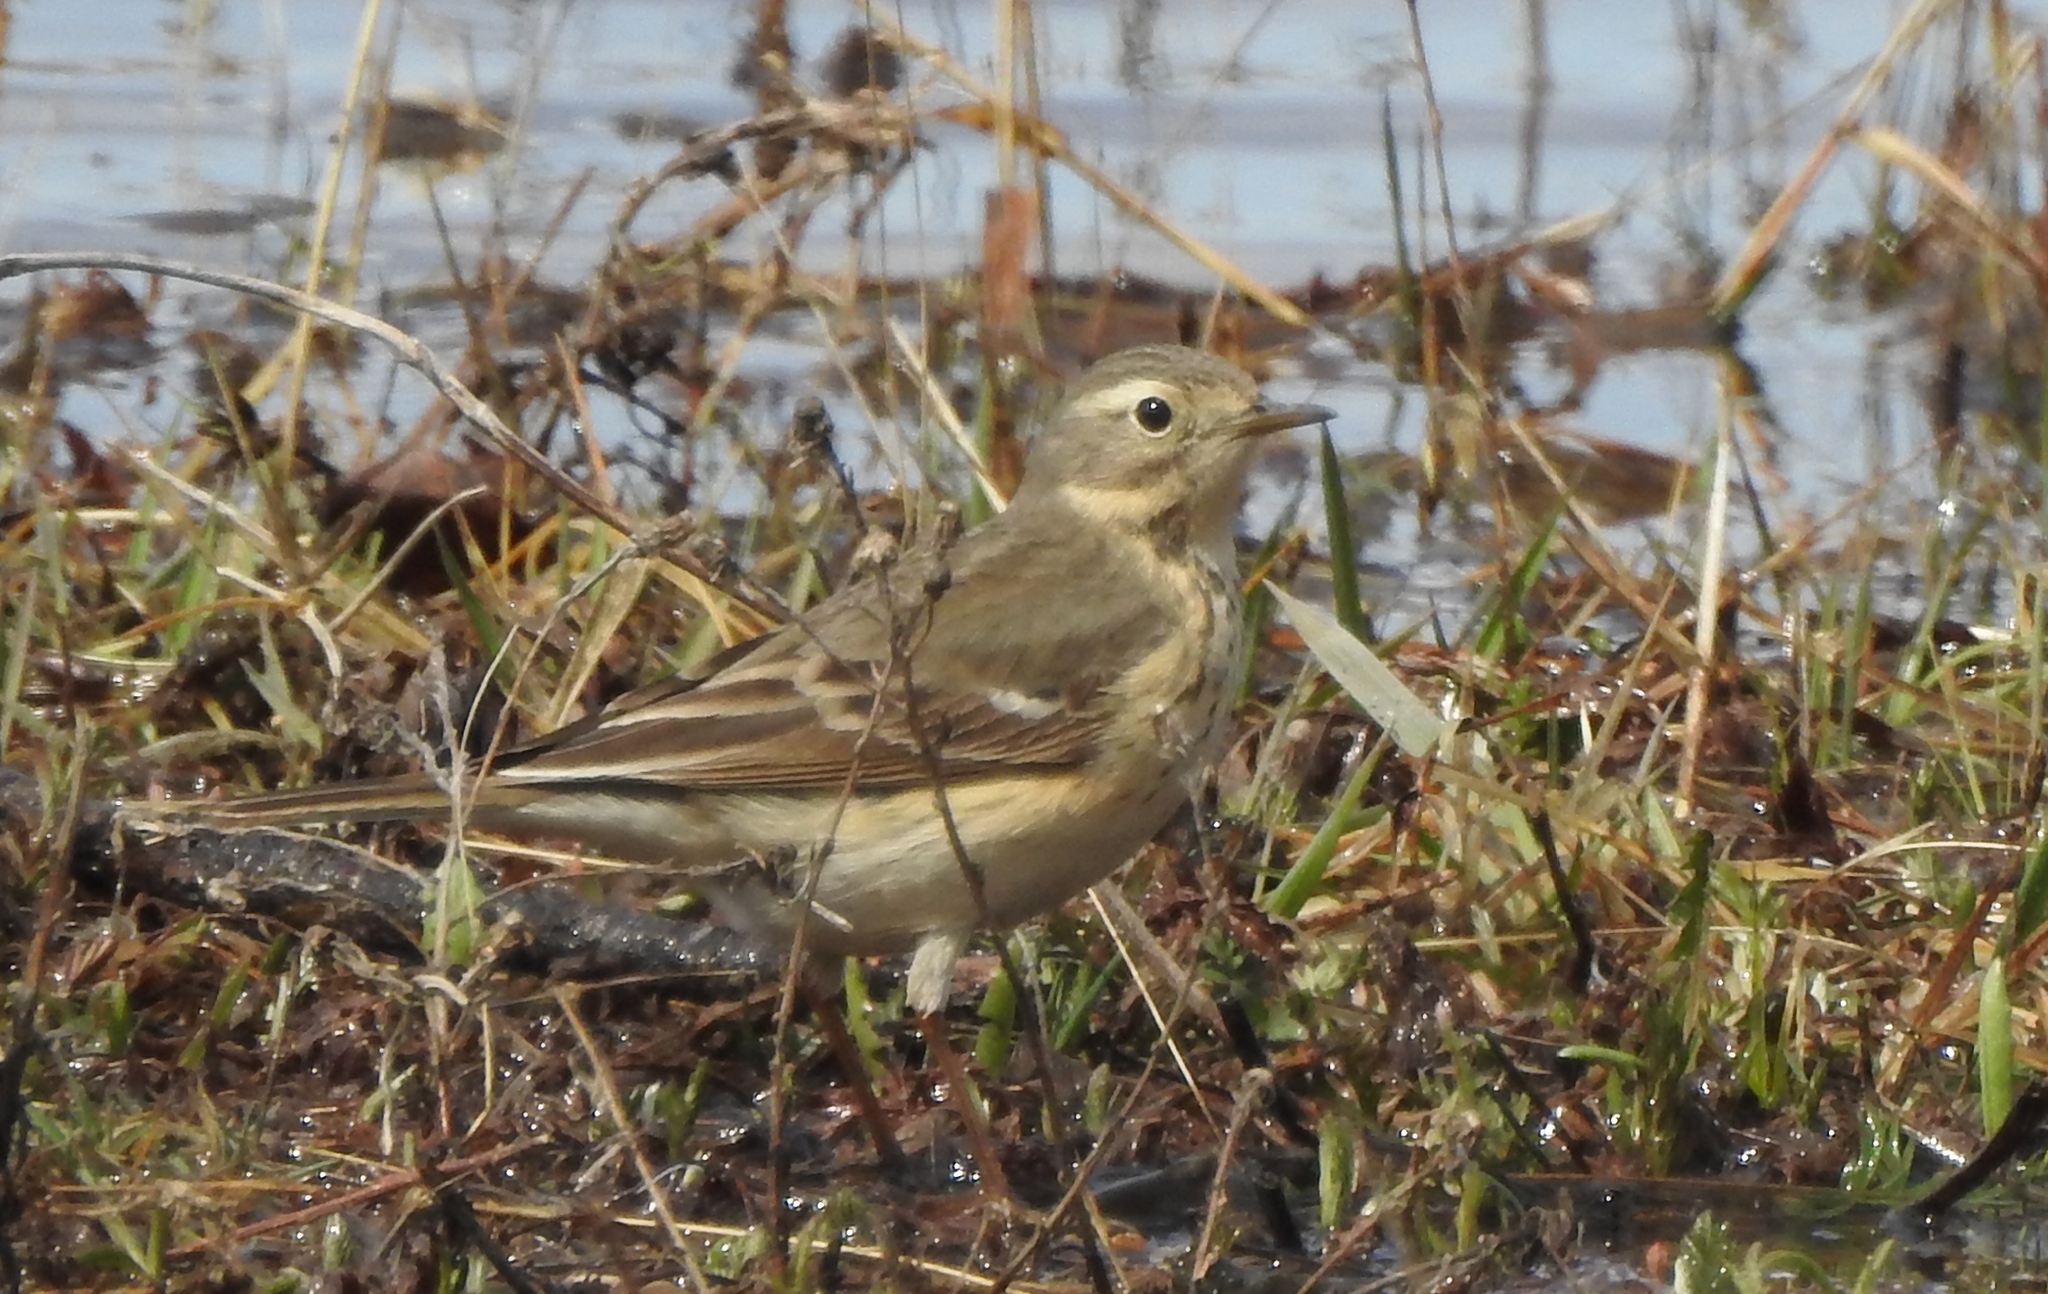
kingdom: Animalia
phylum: Chordata
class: Aves
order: Passeriformes
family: Motacillidae
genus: Anthus
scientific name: Anthus rubescens
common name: Buff-bellied pipit
